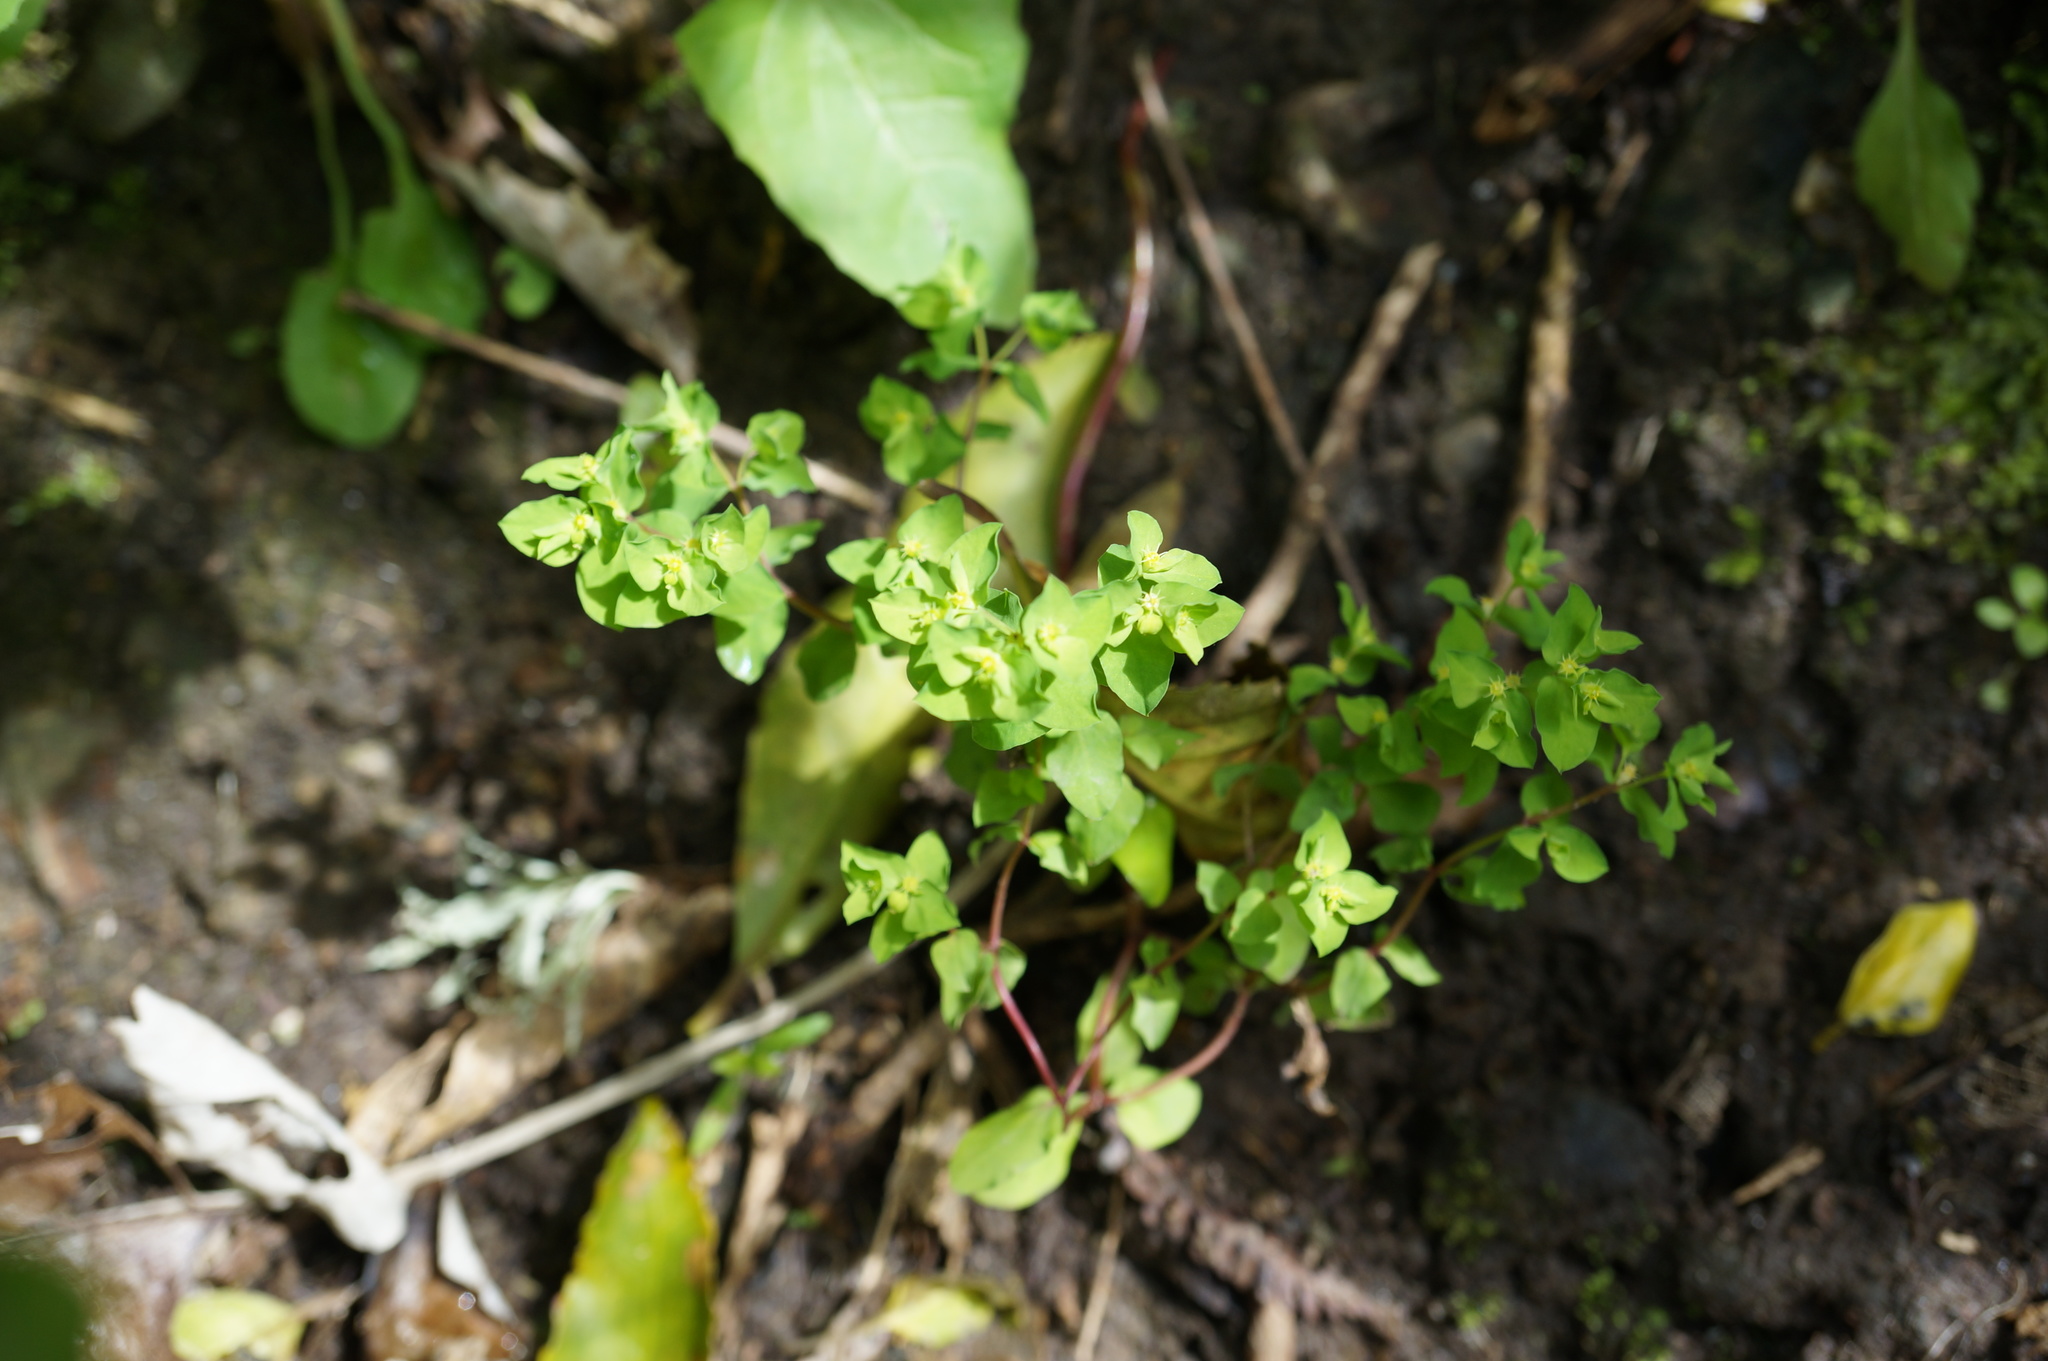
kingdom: Plantae
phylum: Tracheophyta
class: Magnoliopsida
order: Malpighiales
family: Euphorbiaceae
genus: Euphorbia
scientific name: Euphorbia peplus
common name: Petty spurge
